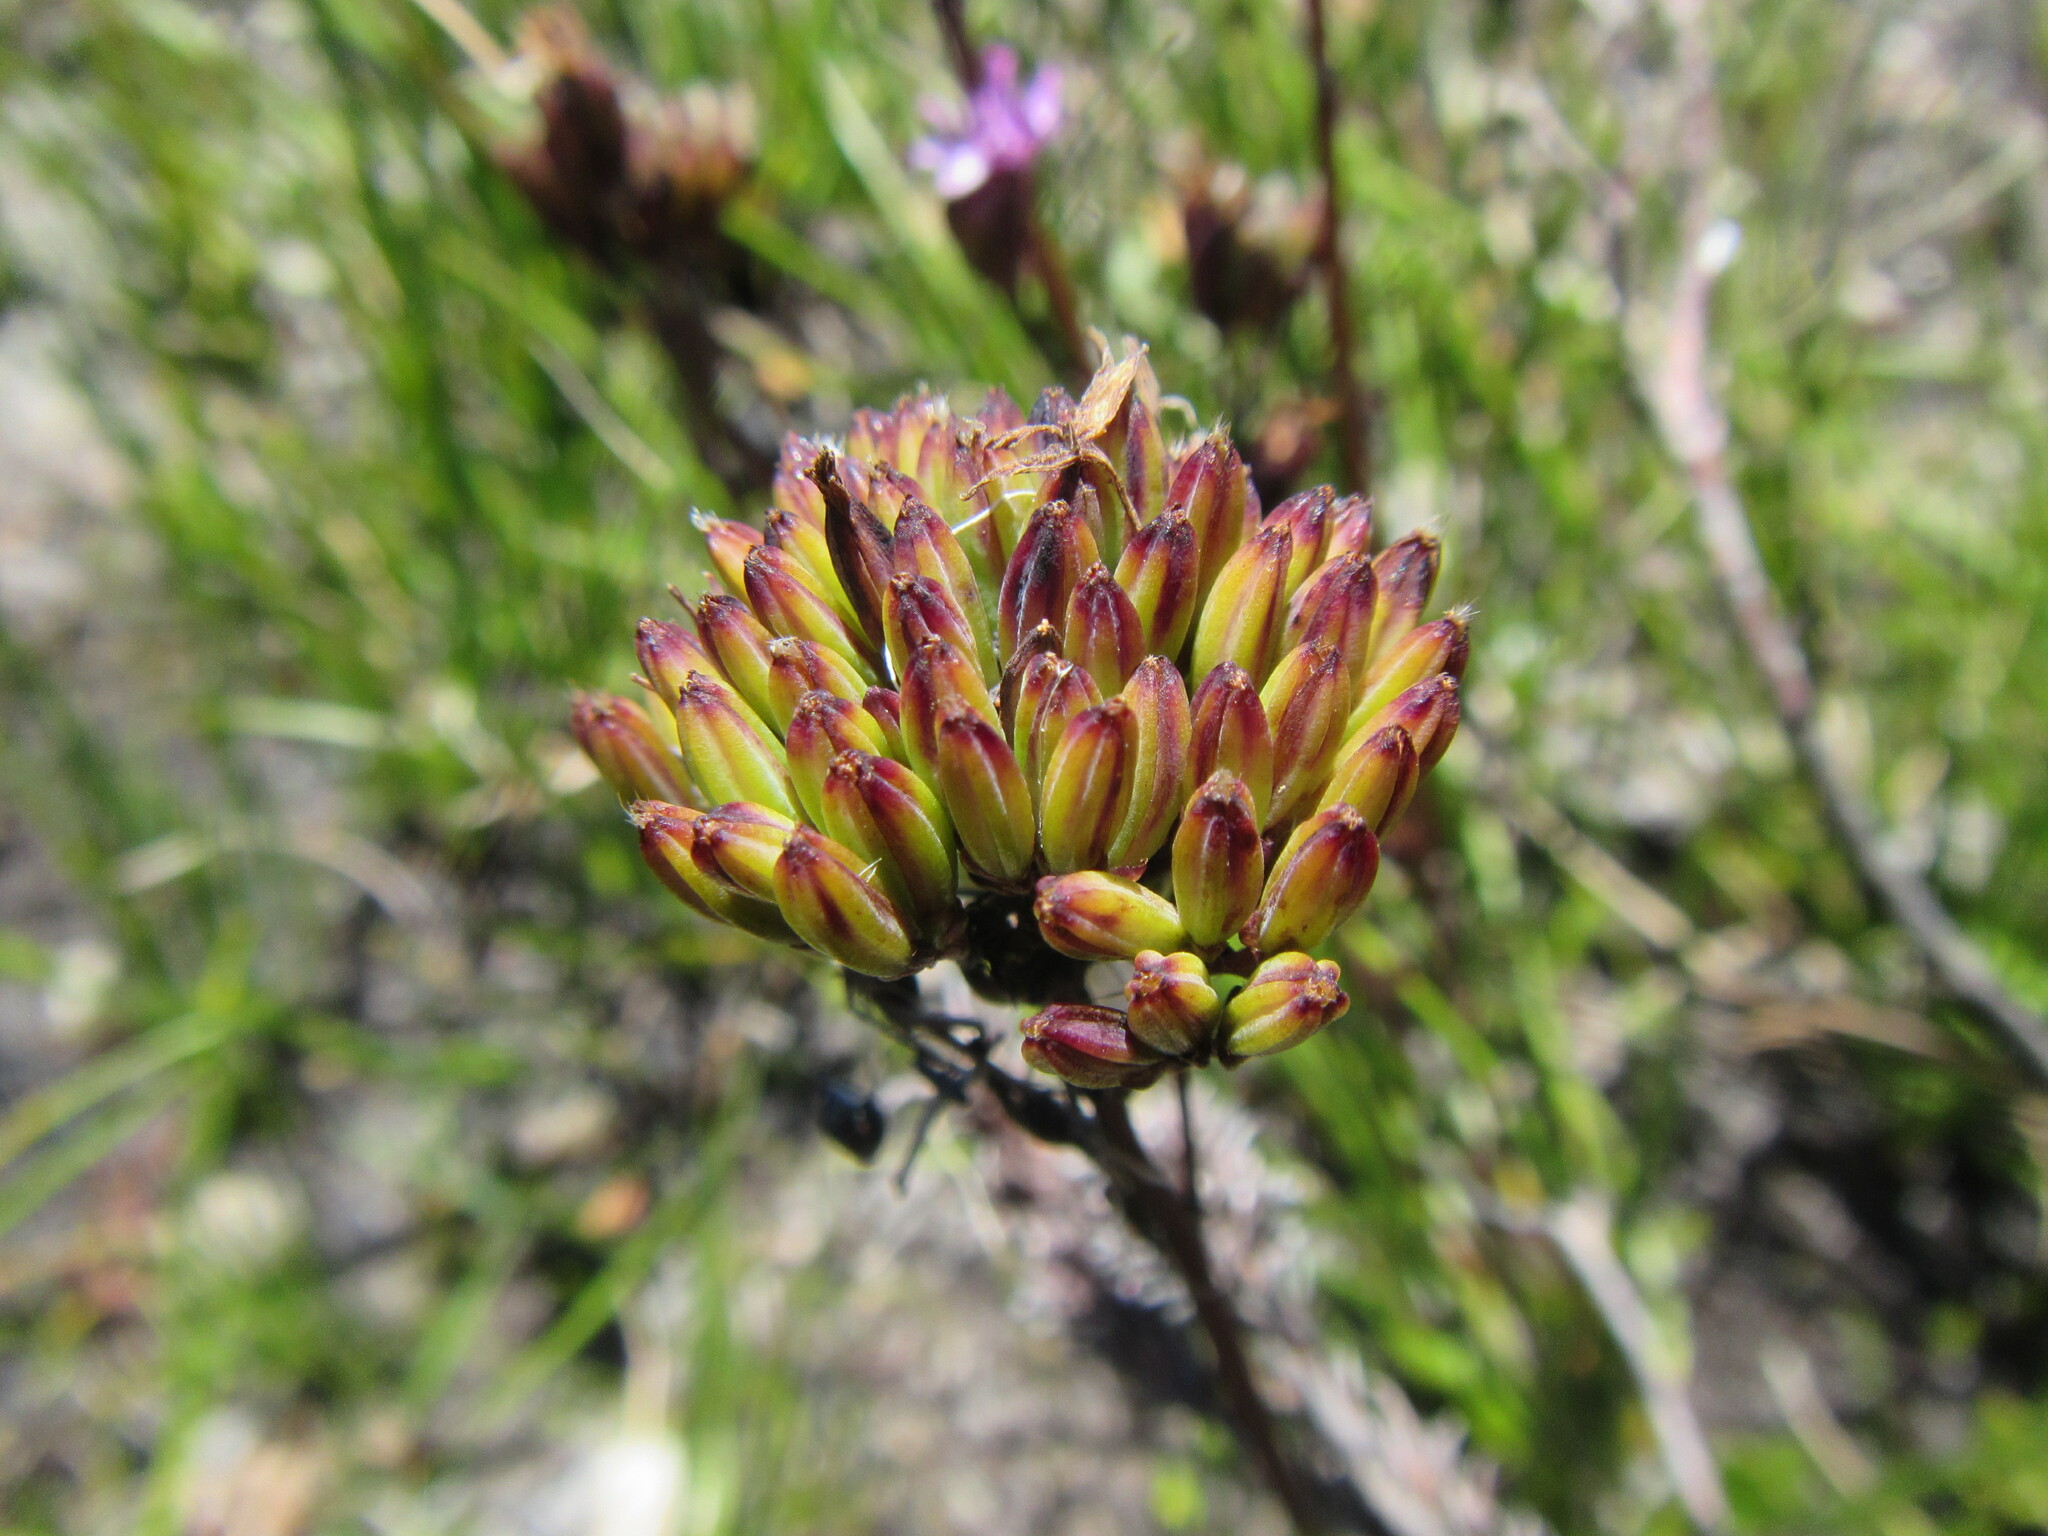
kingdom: Plantae
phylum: Tracheophyta
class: Magnoliopsida
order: Asterales
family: Asteraceae
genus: Corymbium
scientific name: Corymbium glabrum
